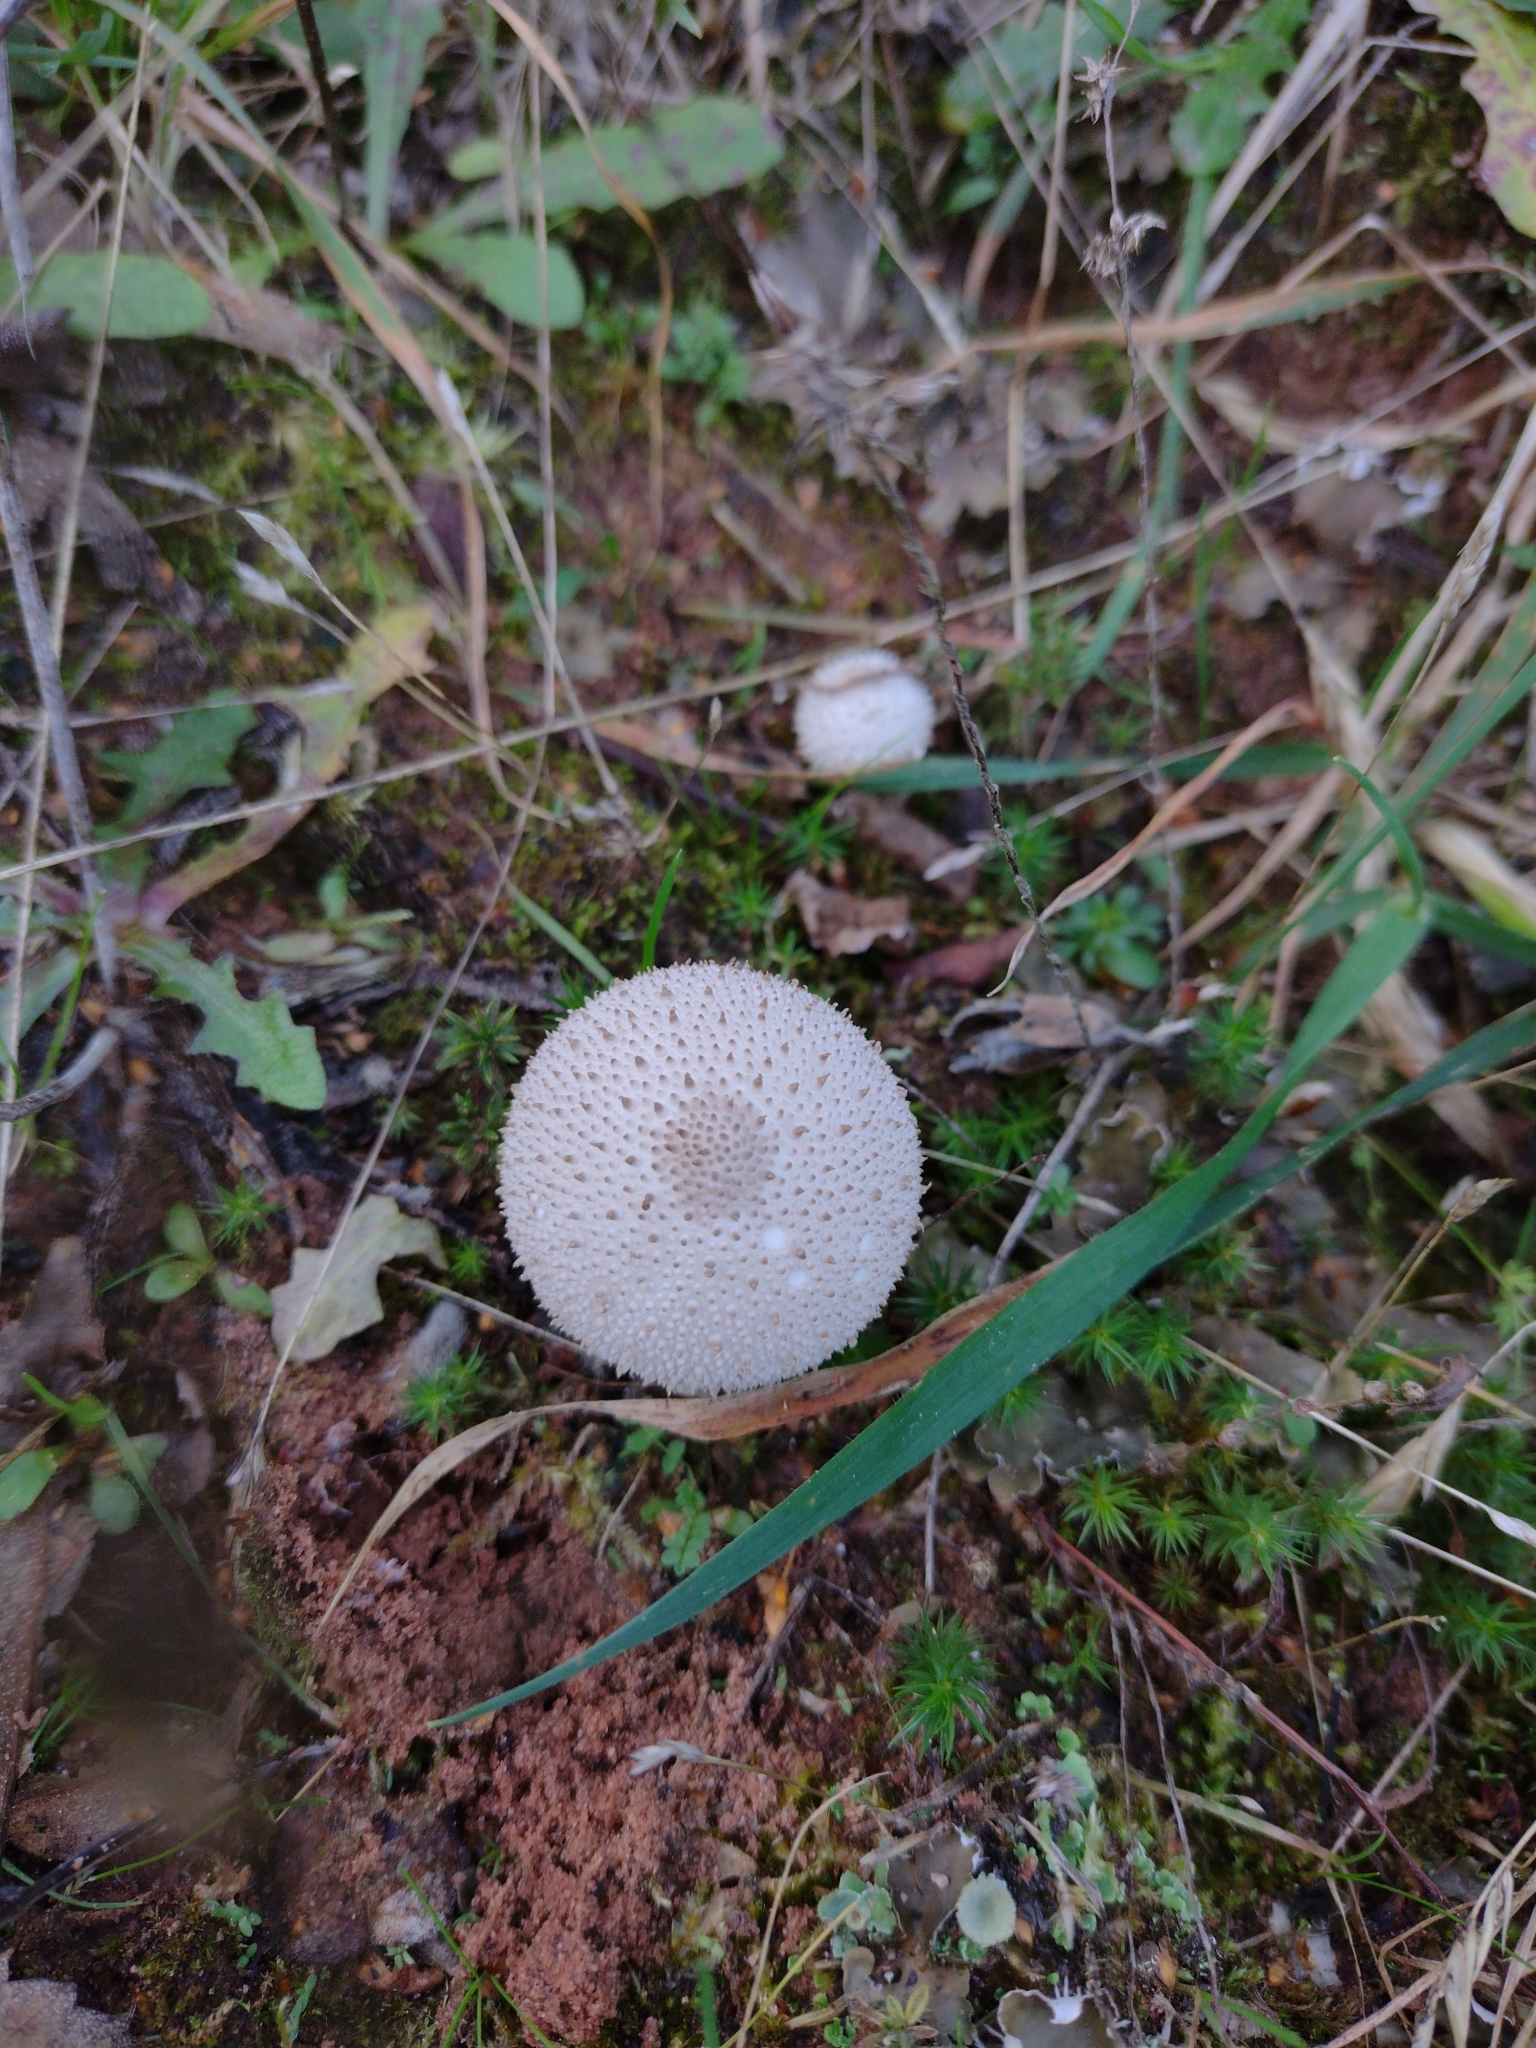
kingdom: Fungi
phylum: Basidiomycota
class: Agaricomycetes
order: Agaricales
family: Lycoperdaceae
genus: Lycoperdon
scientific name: Lycoperdon perlatum
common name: Common puffball
